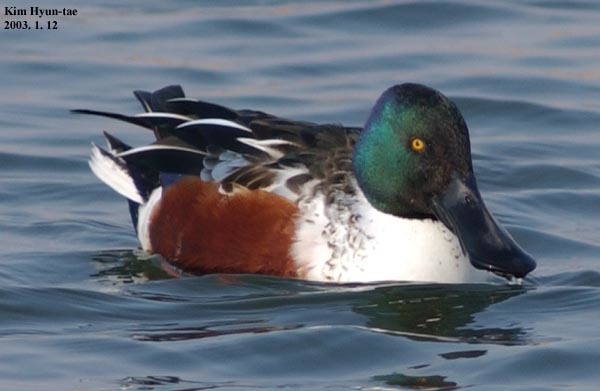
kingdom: Animalia
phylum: Chordata
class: Aves
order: Anseriformes
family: Anatidae
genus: Spatula
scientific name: Spatula clypeata
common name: Northern shoveler
